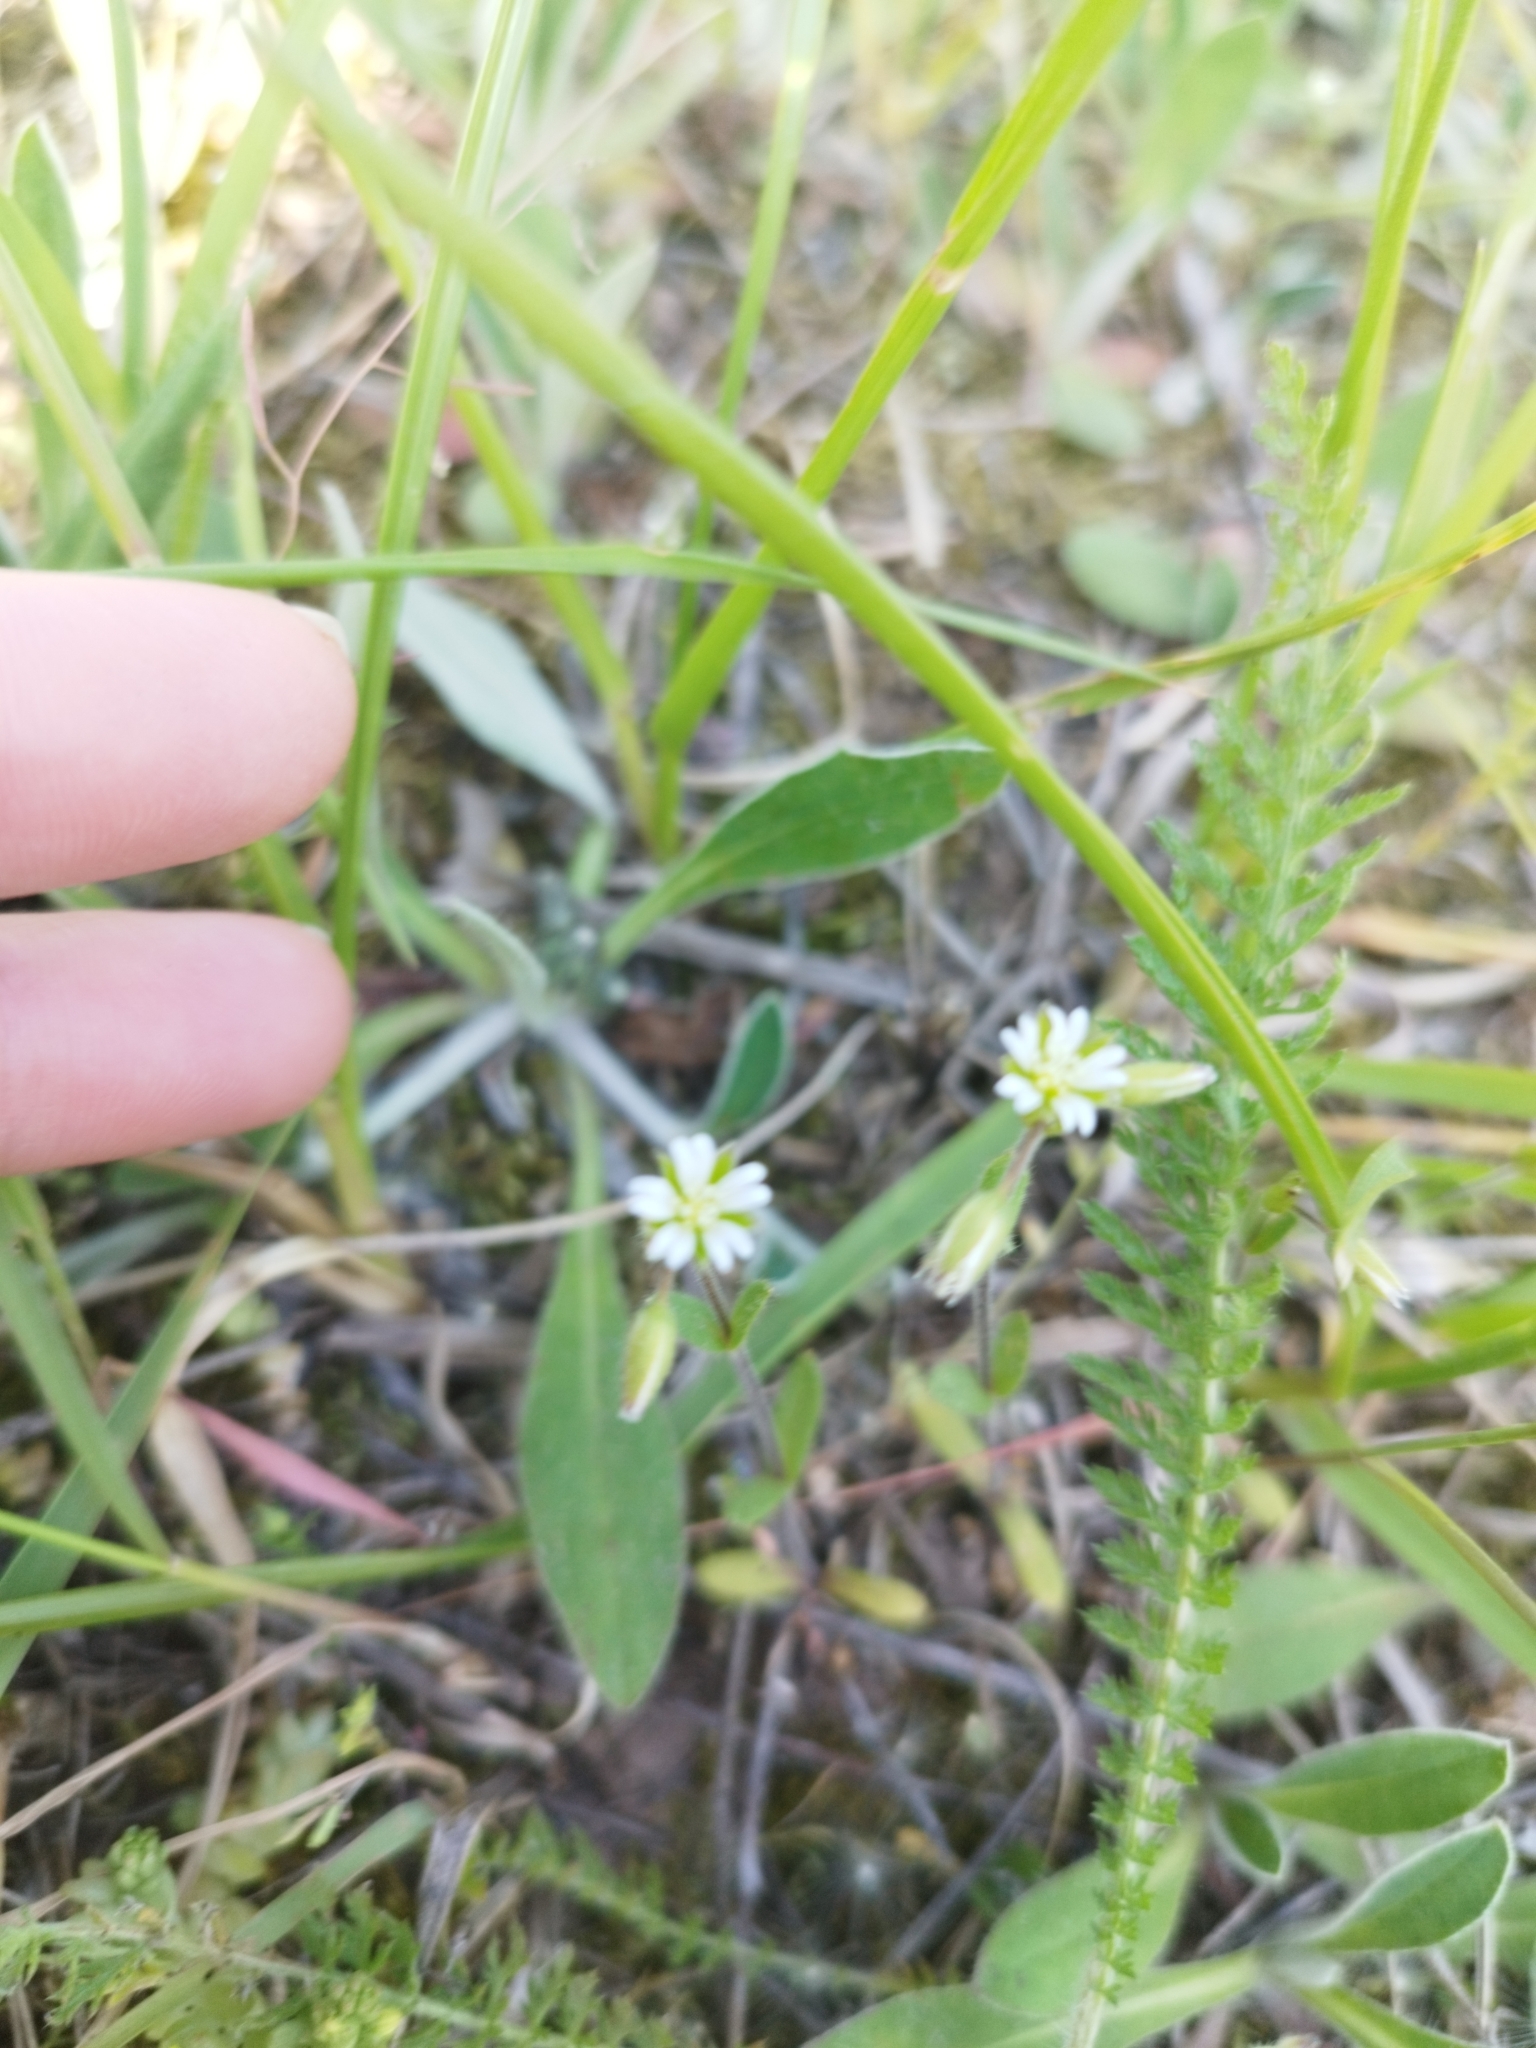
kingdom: Plantae
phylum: Tracheophyta
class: Magnoliopsida
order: Caryophyllales
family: Caryophyllaceae
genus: Cerastium
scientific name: Cerastium holosteoides
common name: Big chickweed
